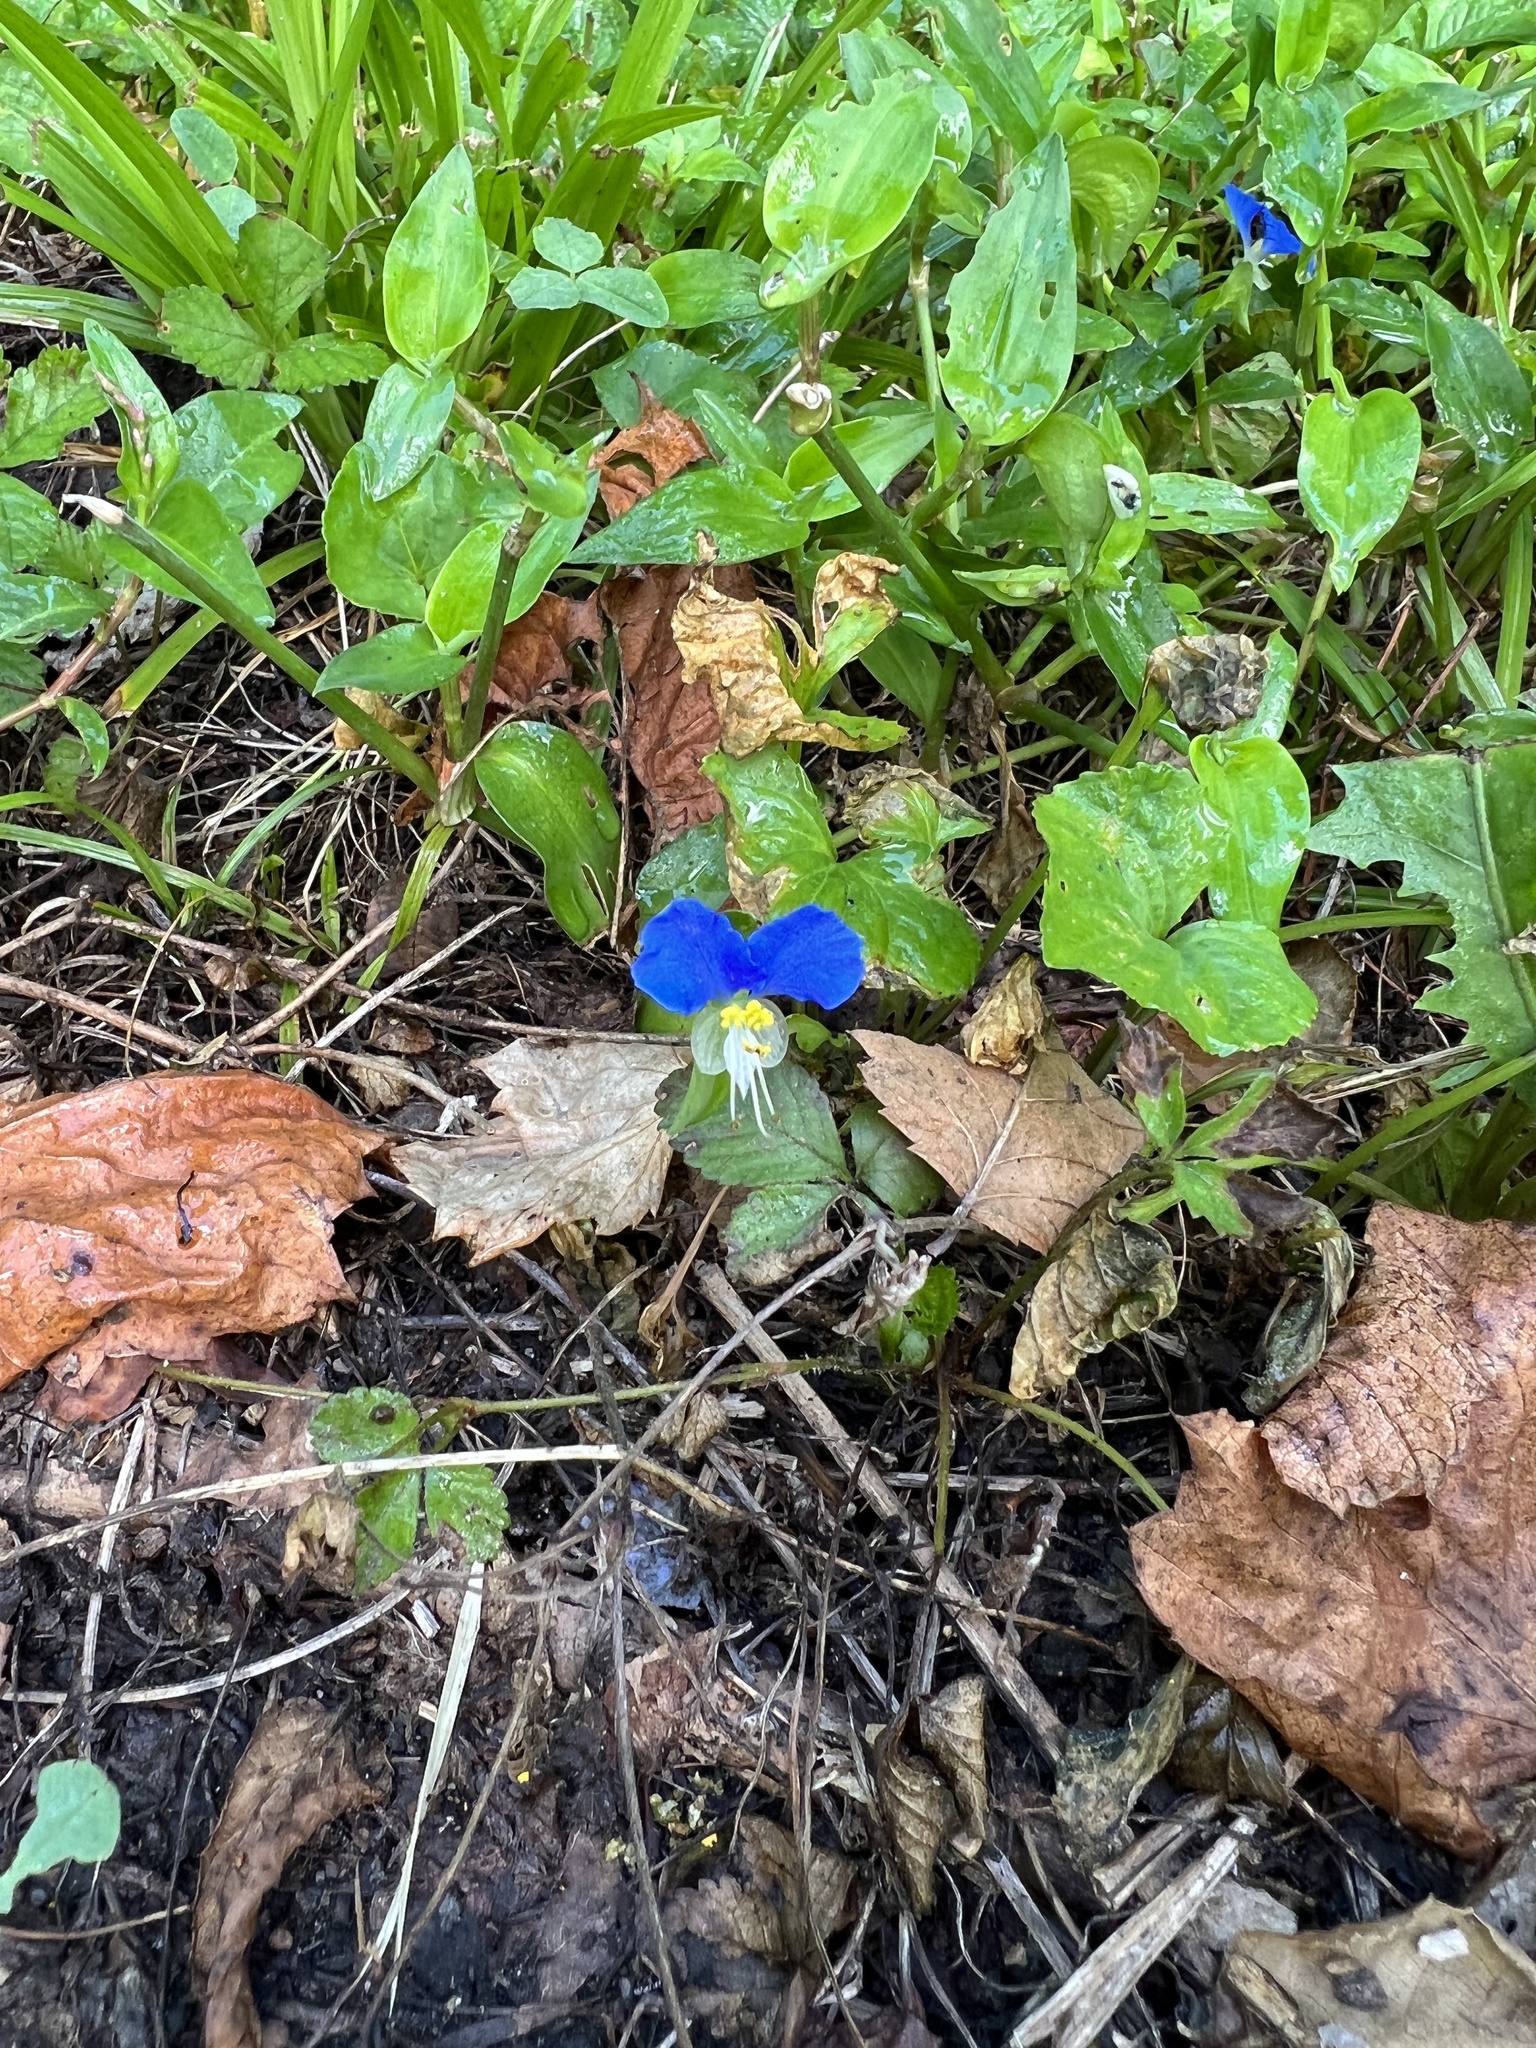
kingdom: Plantae
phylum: Tracheophyta
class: Liliopsida
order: Commelinales
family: Commelinaceae
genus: Commelina
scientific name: Commelina communis
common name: Asiatic dayflower
